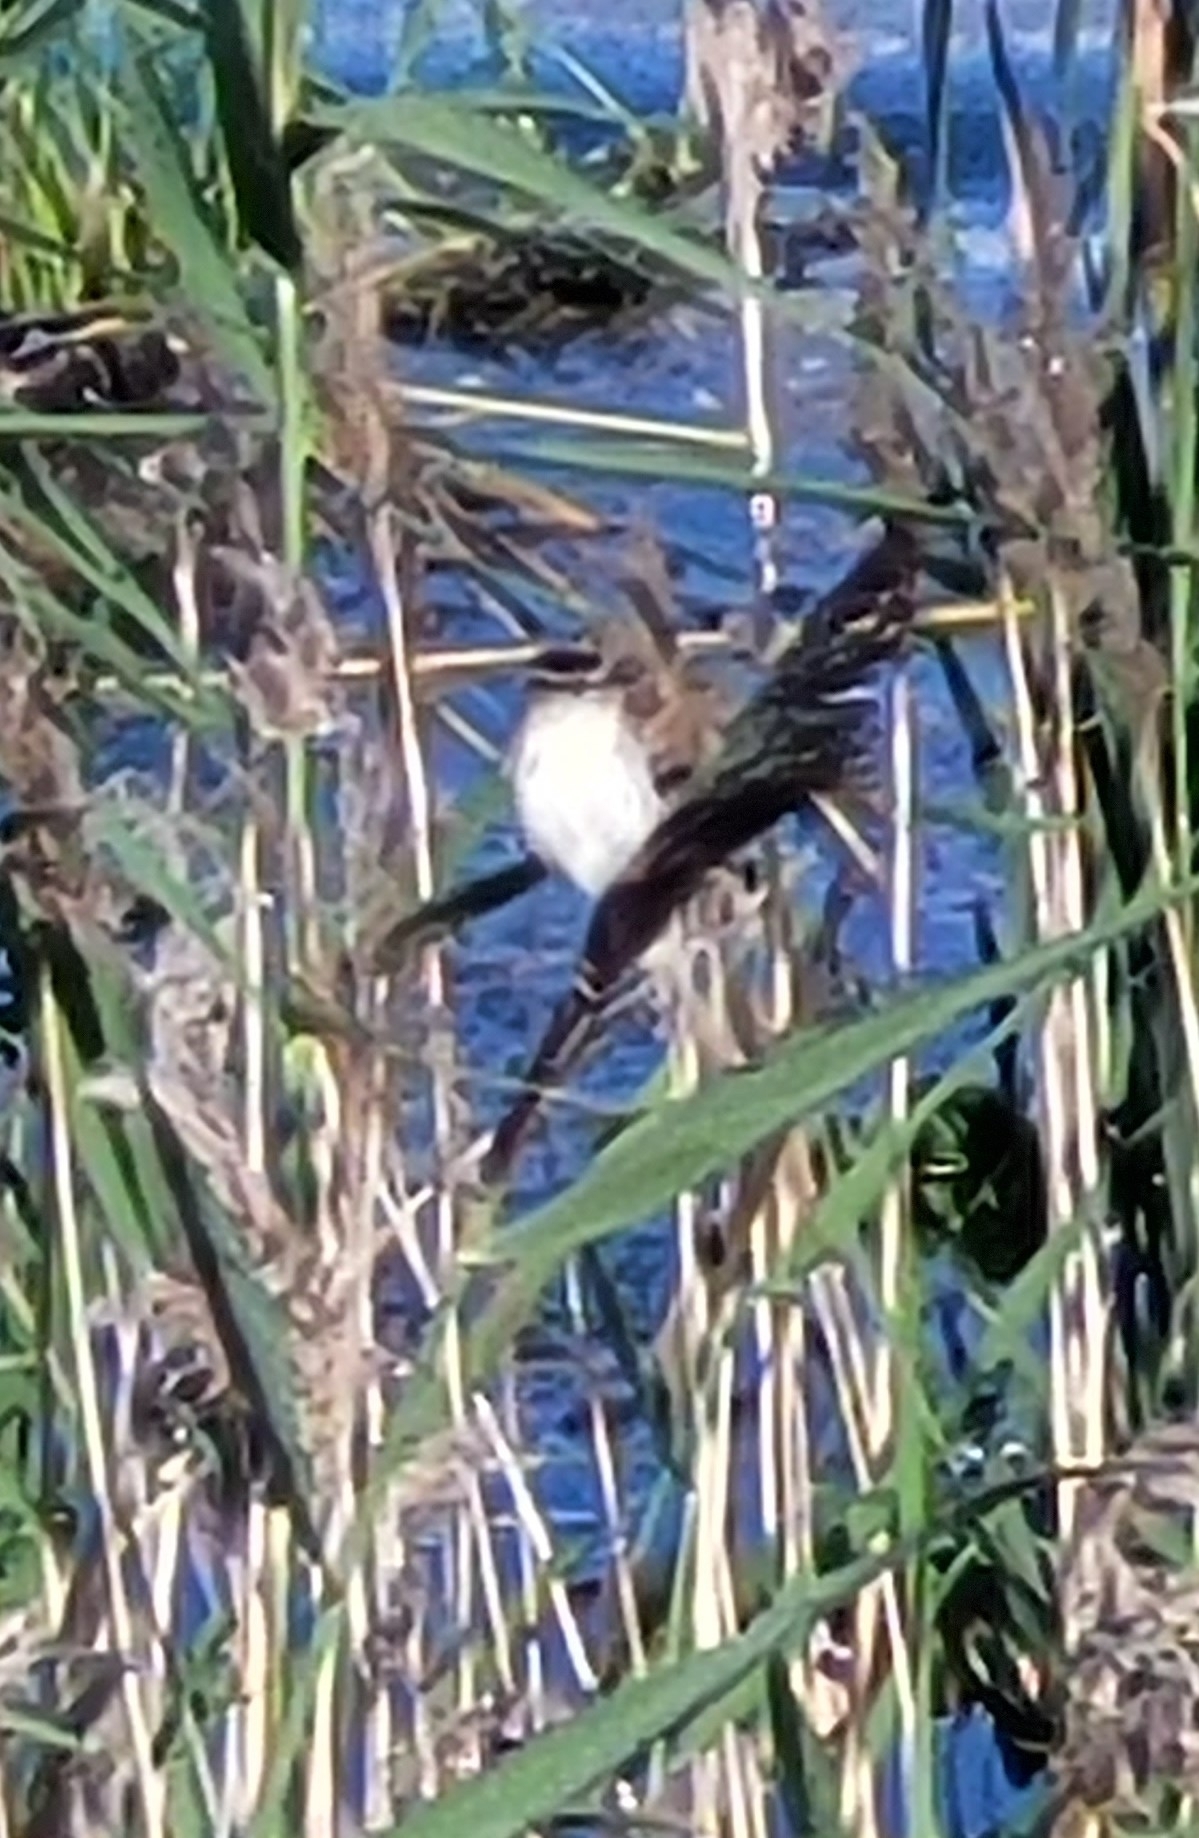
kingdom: Animalia
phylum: Chordata
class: Aves
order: Passeriformes
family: Acrocephalidae
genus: Acrocephalus
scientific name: Acrocephalus schoenobaenus
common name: Sedge warbler
